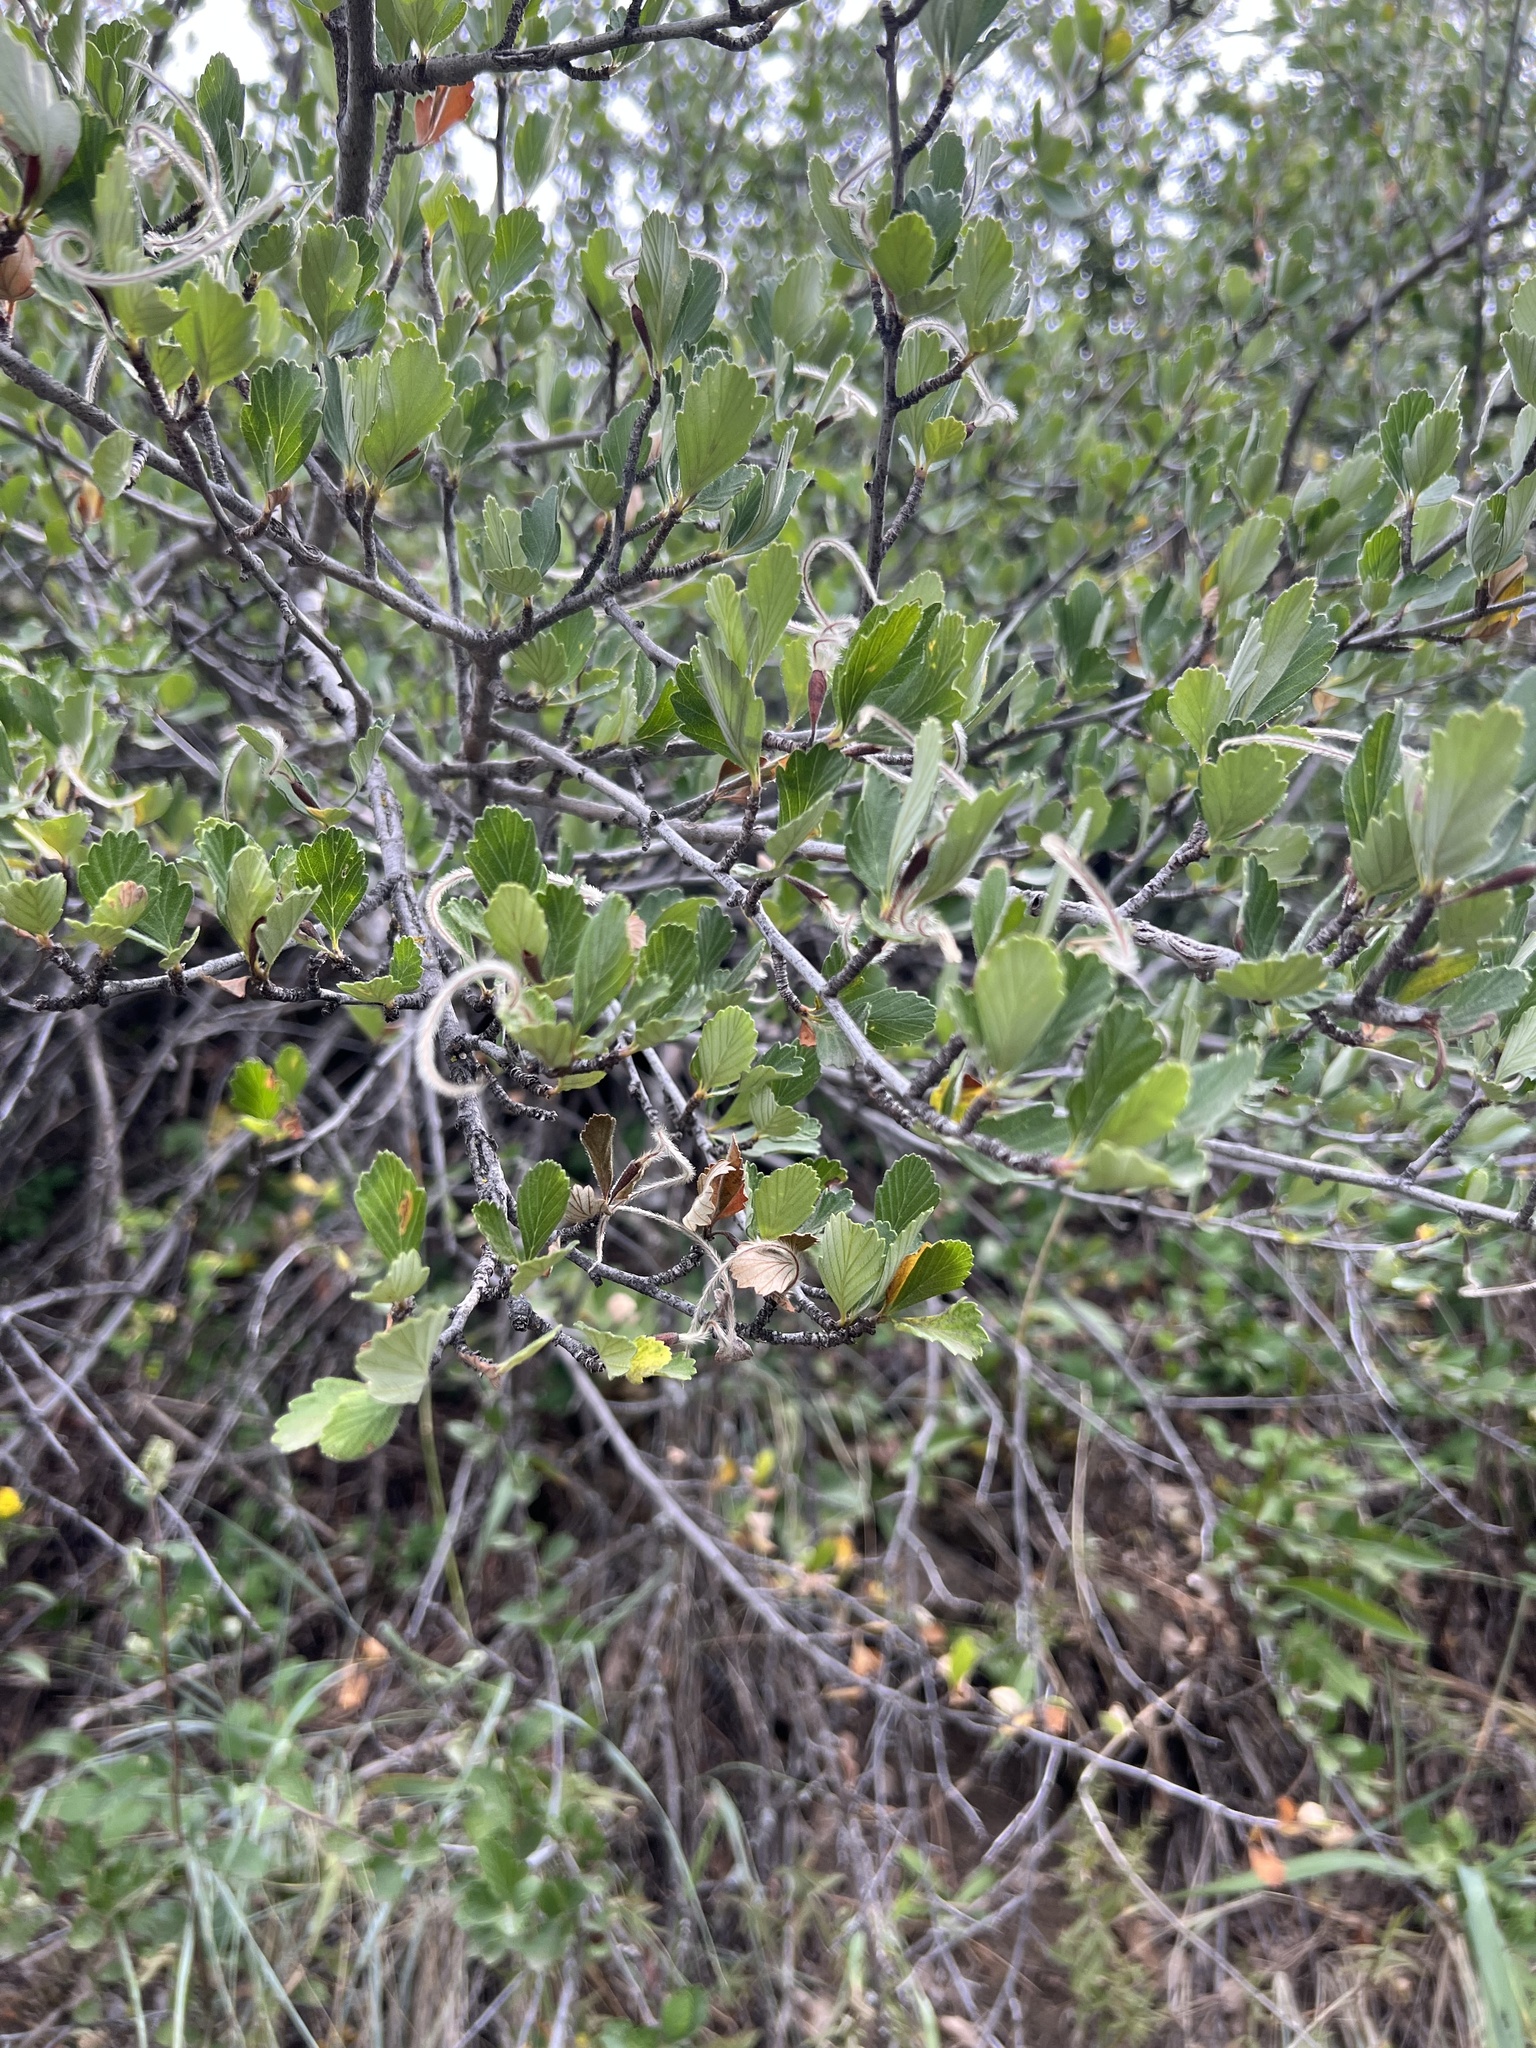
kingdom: Plantae
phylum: Tracheophyta
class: Magnoliopsida
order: Rosales
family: Rosaceae
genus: Cercocarpus
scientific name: Cercocarpus montanus
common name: Alder-leaf cercocarpus
